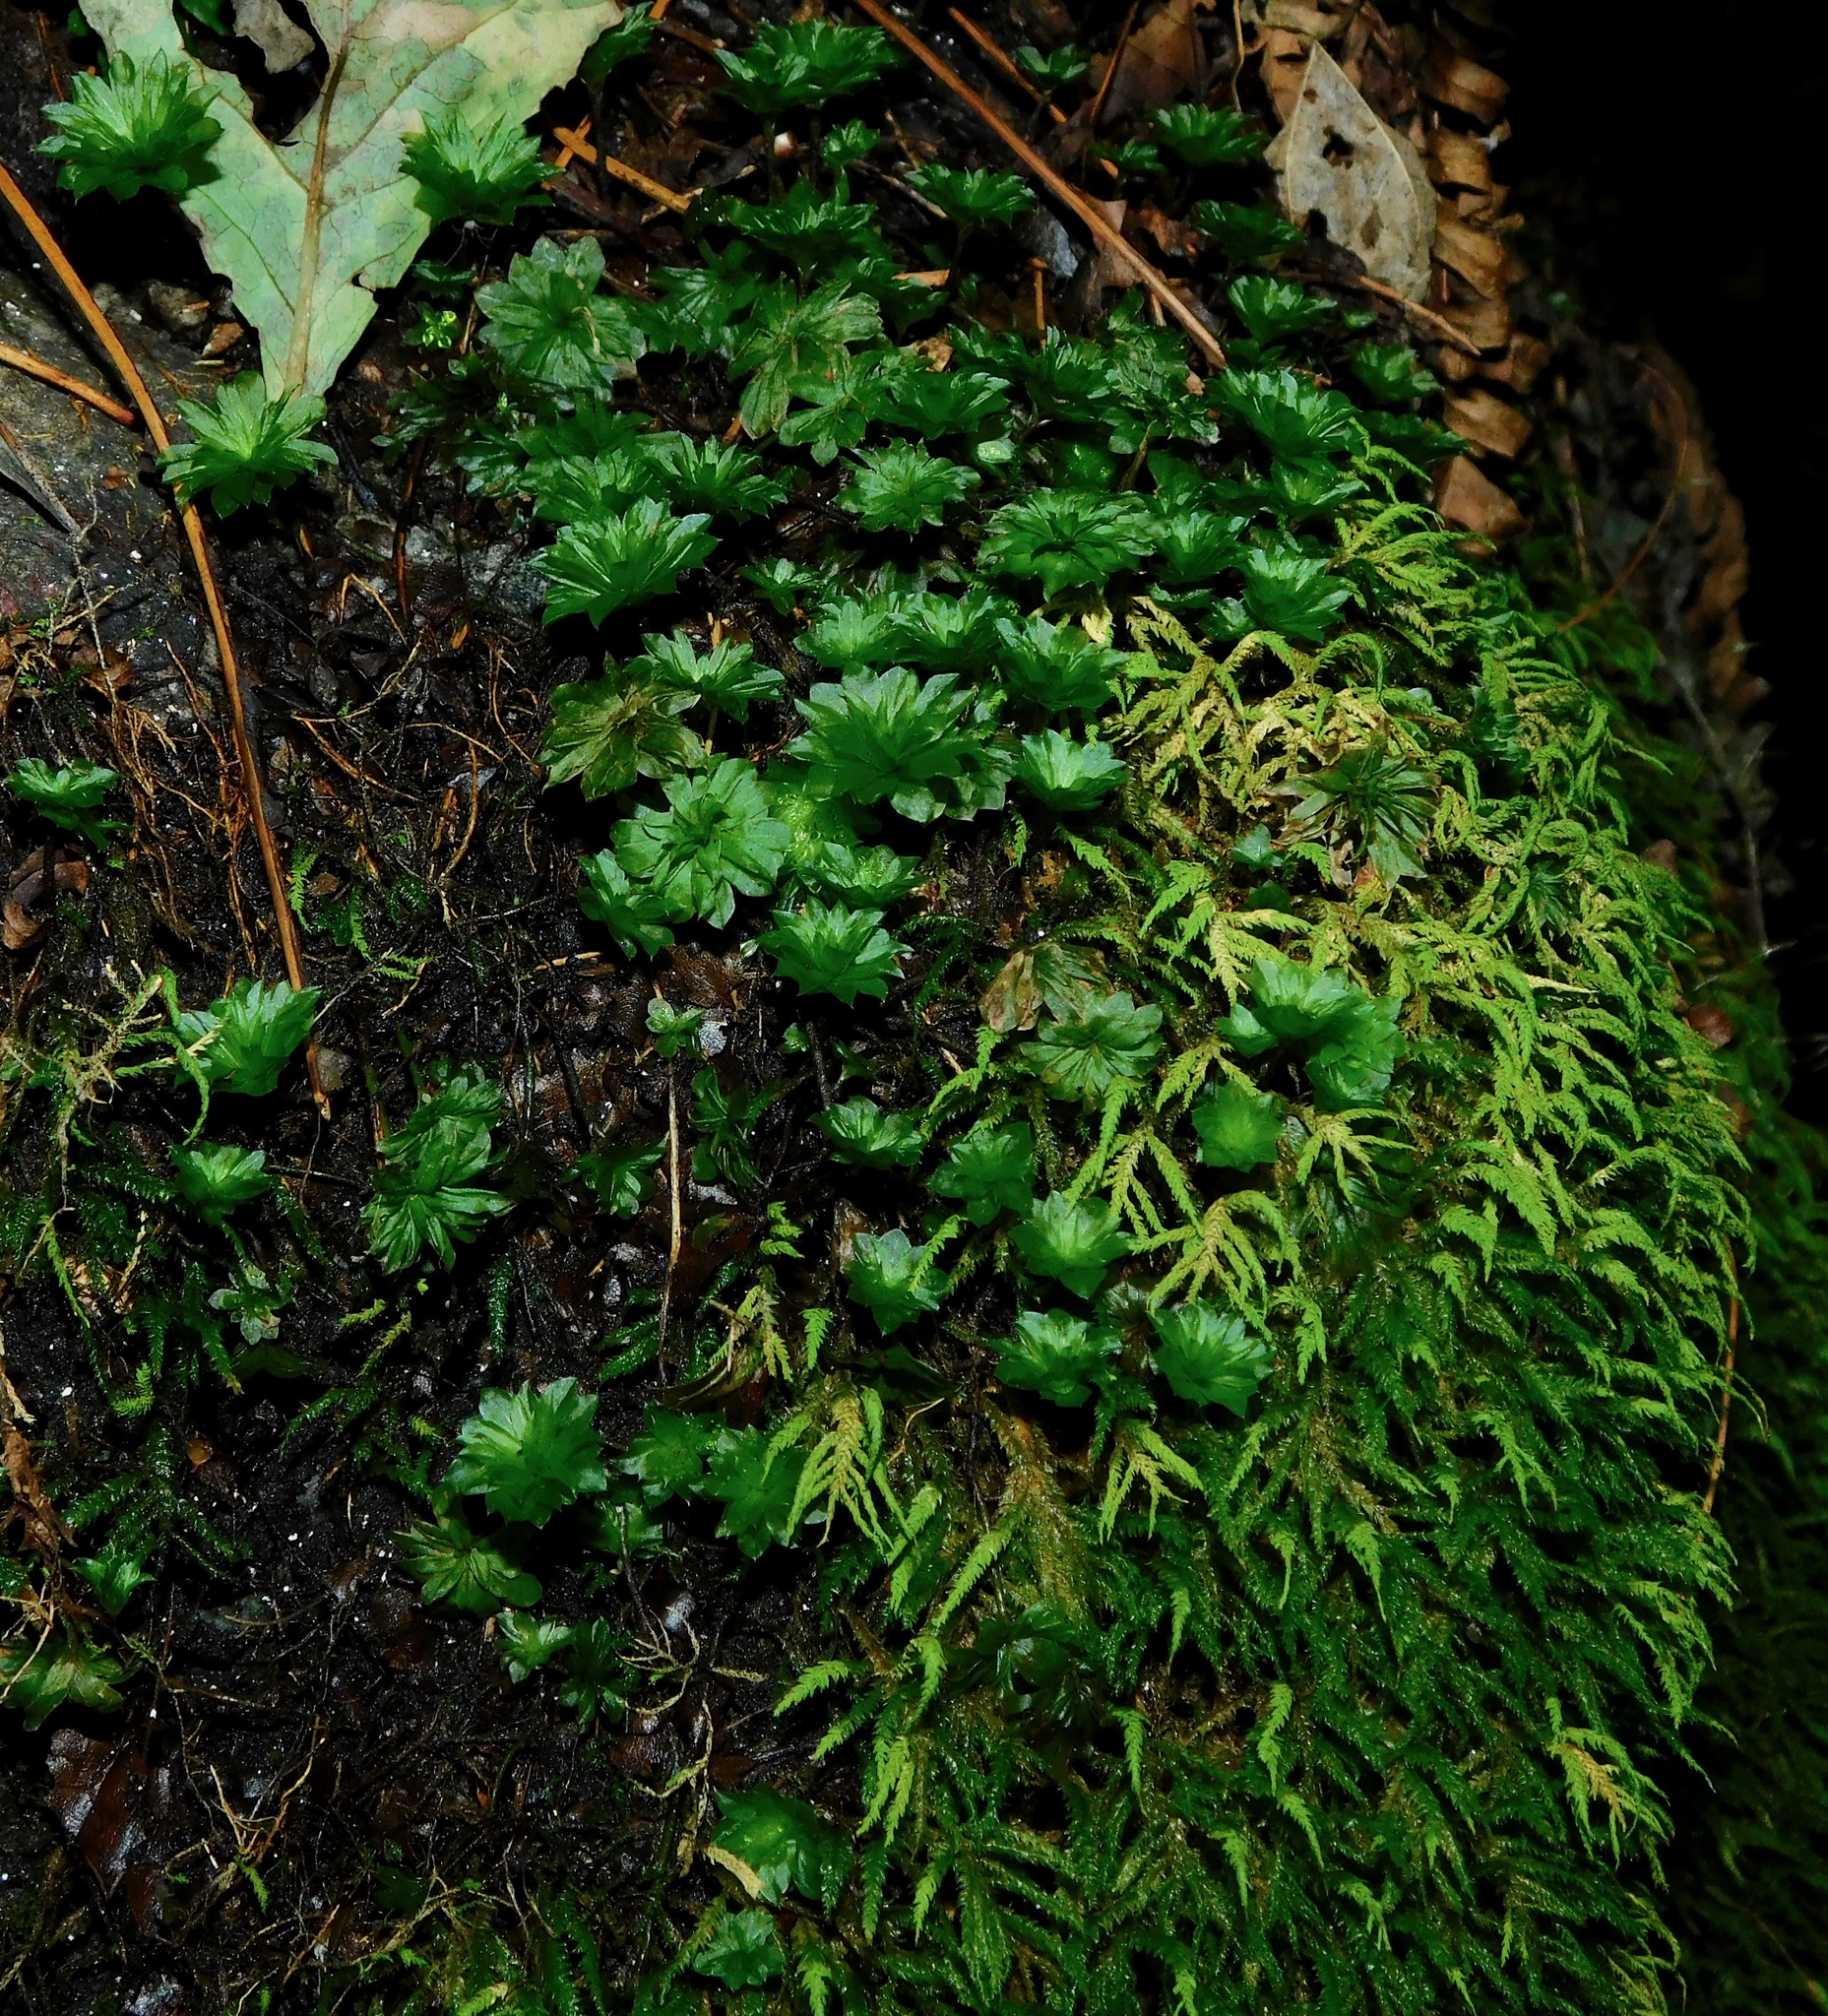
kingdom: Plantae
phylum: Bryophyta
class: Bryopsida
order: Bryales
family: Bryaceae
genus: Rhodobryum
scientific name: Rhodobryum ontariense
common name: Ontario rhodobryum moss
